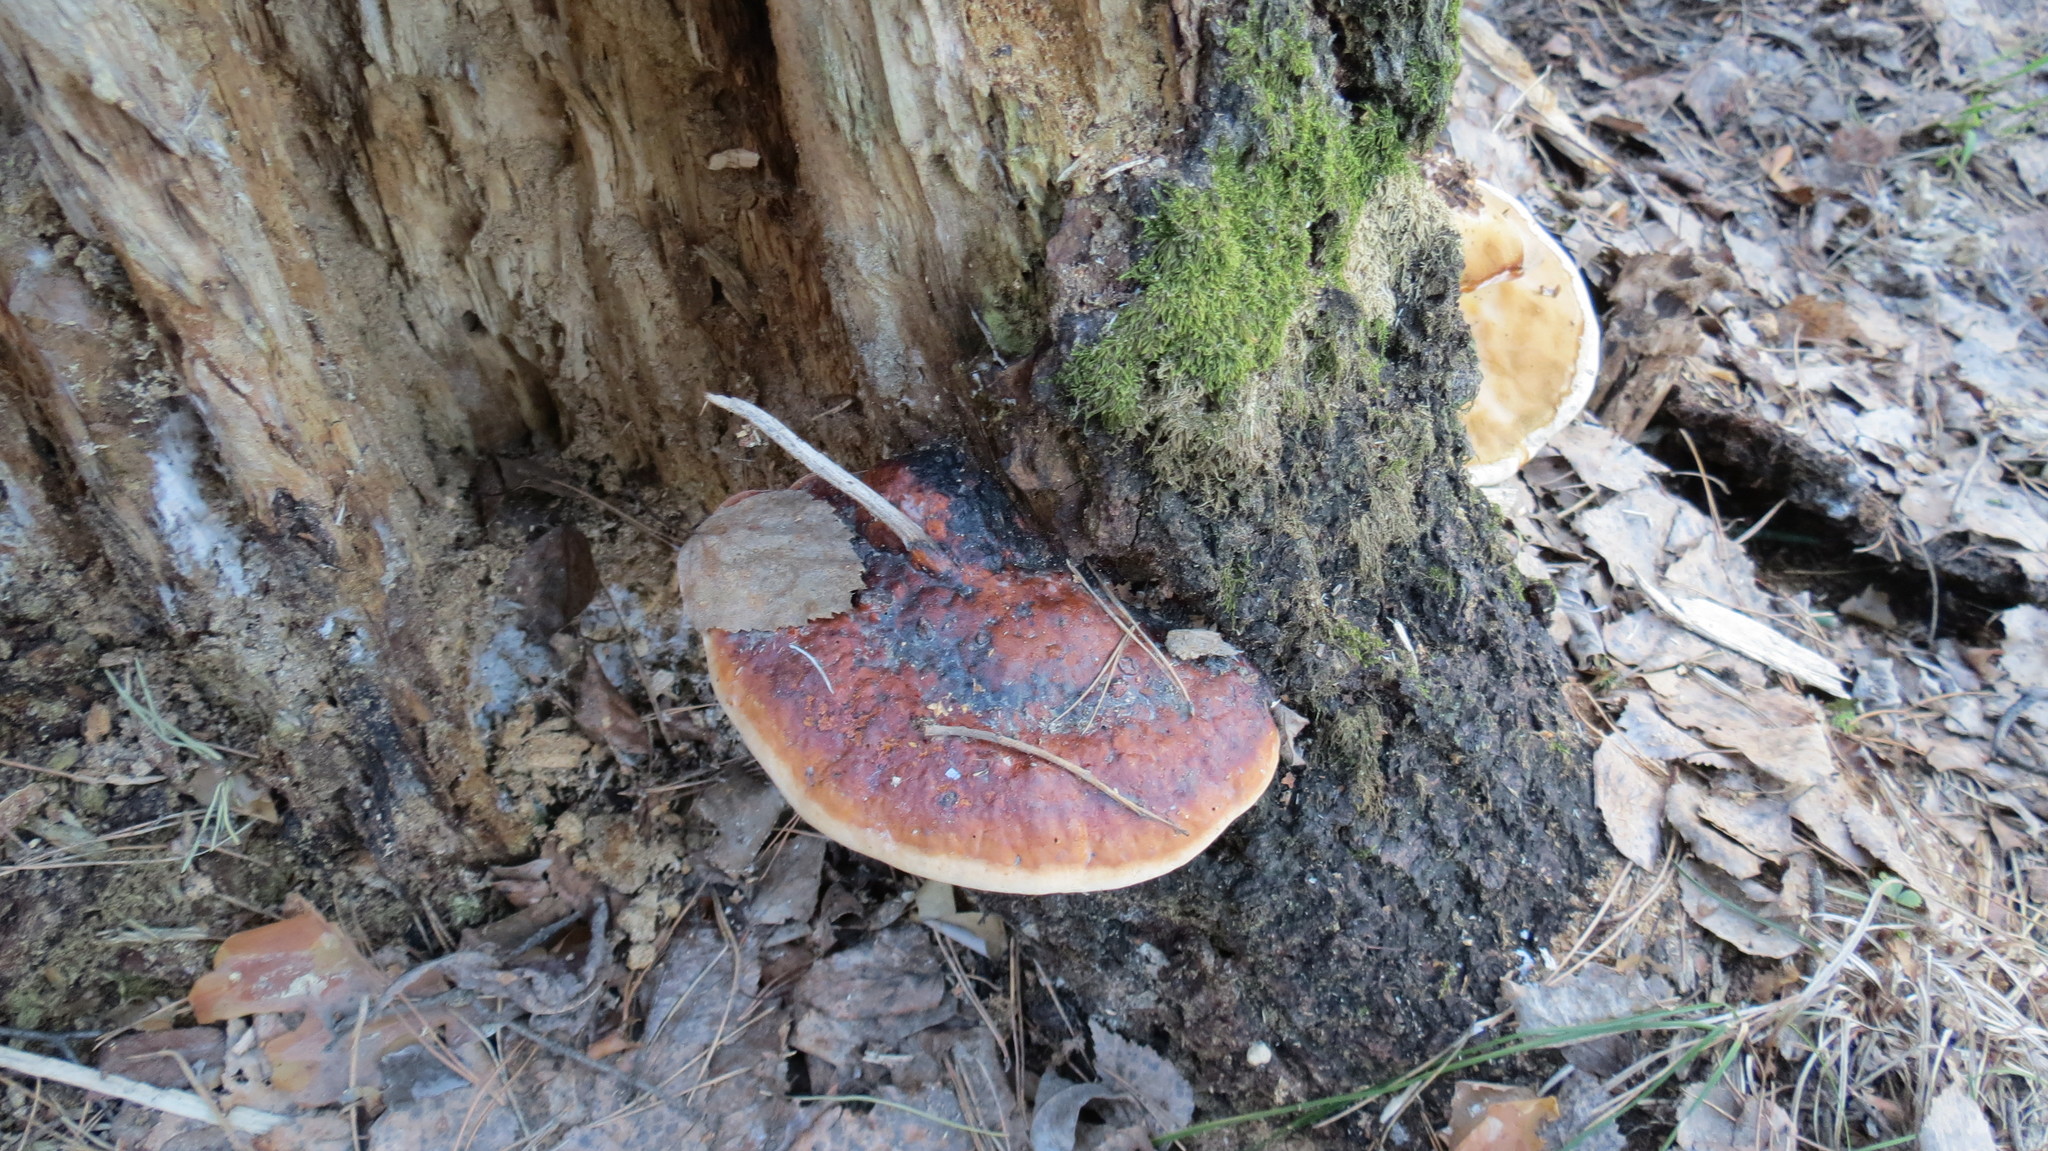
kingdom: Fungi
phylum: Basidiomycota
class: Agaricomycetes
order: Polyporales
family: Fomitopsidaceae
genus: Fomitopsis
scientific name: Fomitopsis pinicola
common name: Red-belted bracket
